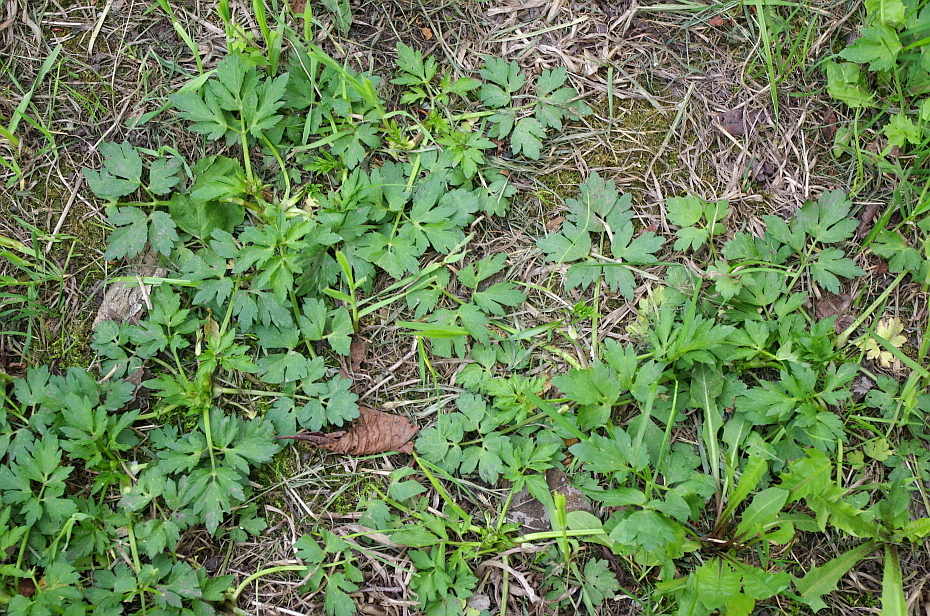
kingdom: Plantae
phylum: Tracheophyta
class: Magnoliopsida
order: Ranunculales
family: Ranunculaceae
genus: Ranunculus
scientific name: Ranunculus repens
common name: Creeping buttercup
